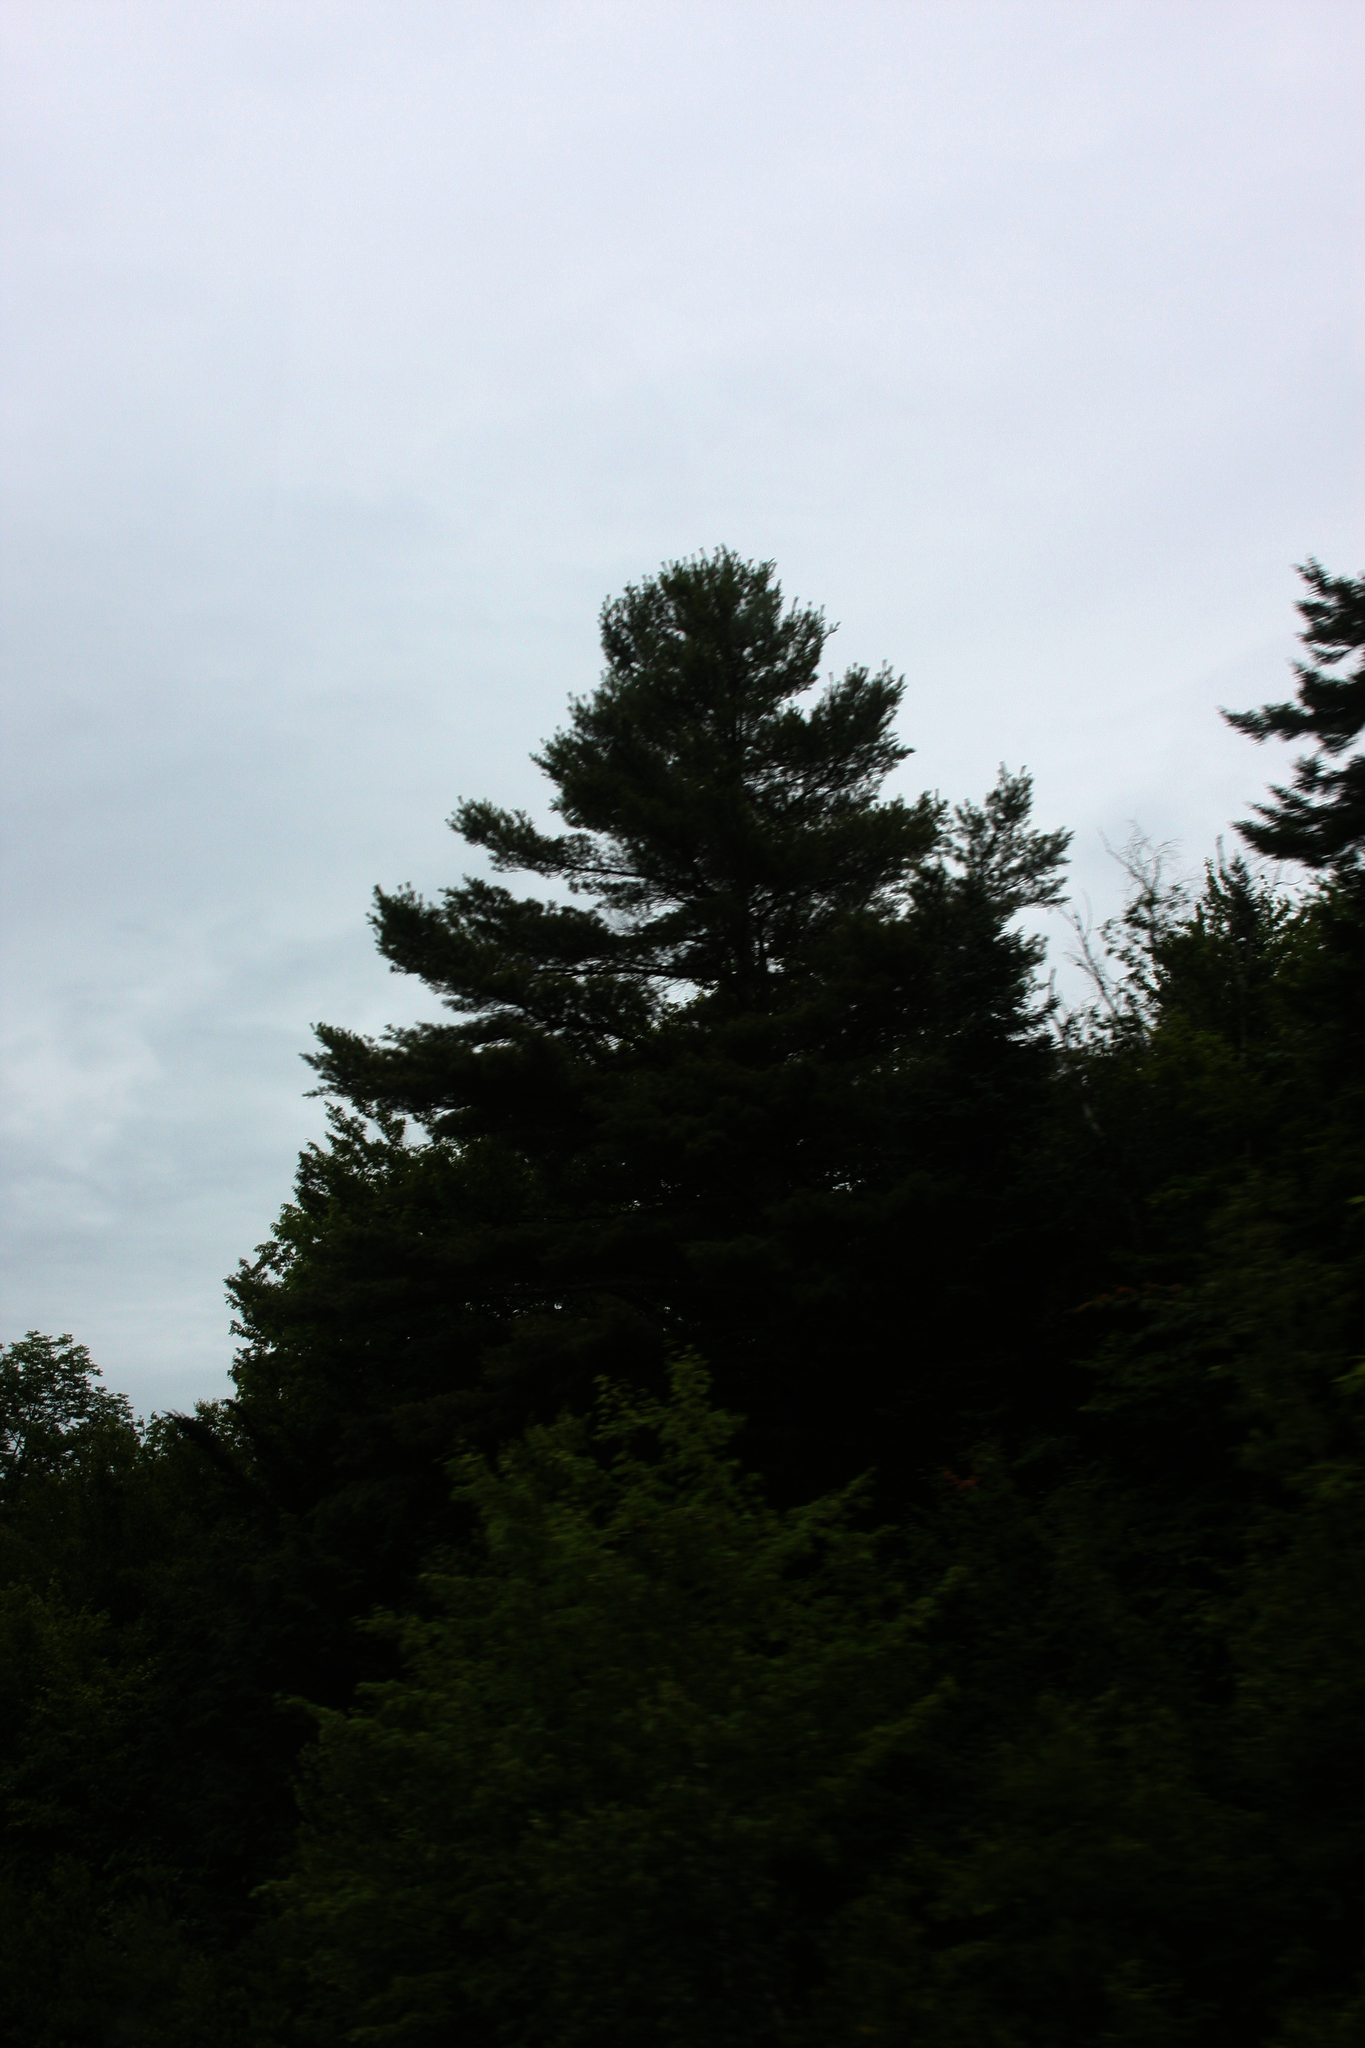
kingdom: Plantae
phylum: Tracheophyta
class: Pinopsida
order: Pinales
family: Pinaceae
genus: Pinus
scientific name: Pinus strobus
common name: Weymouth pine
